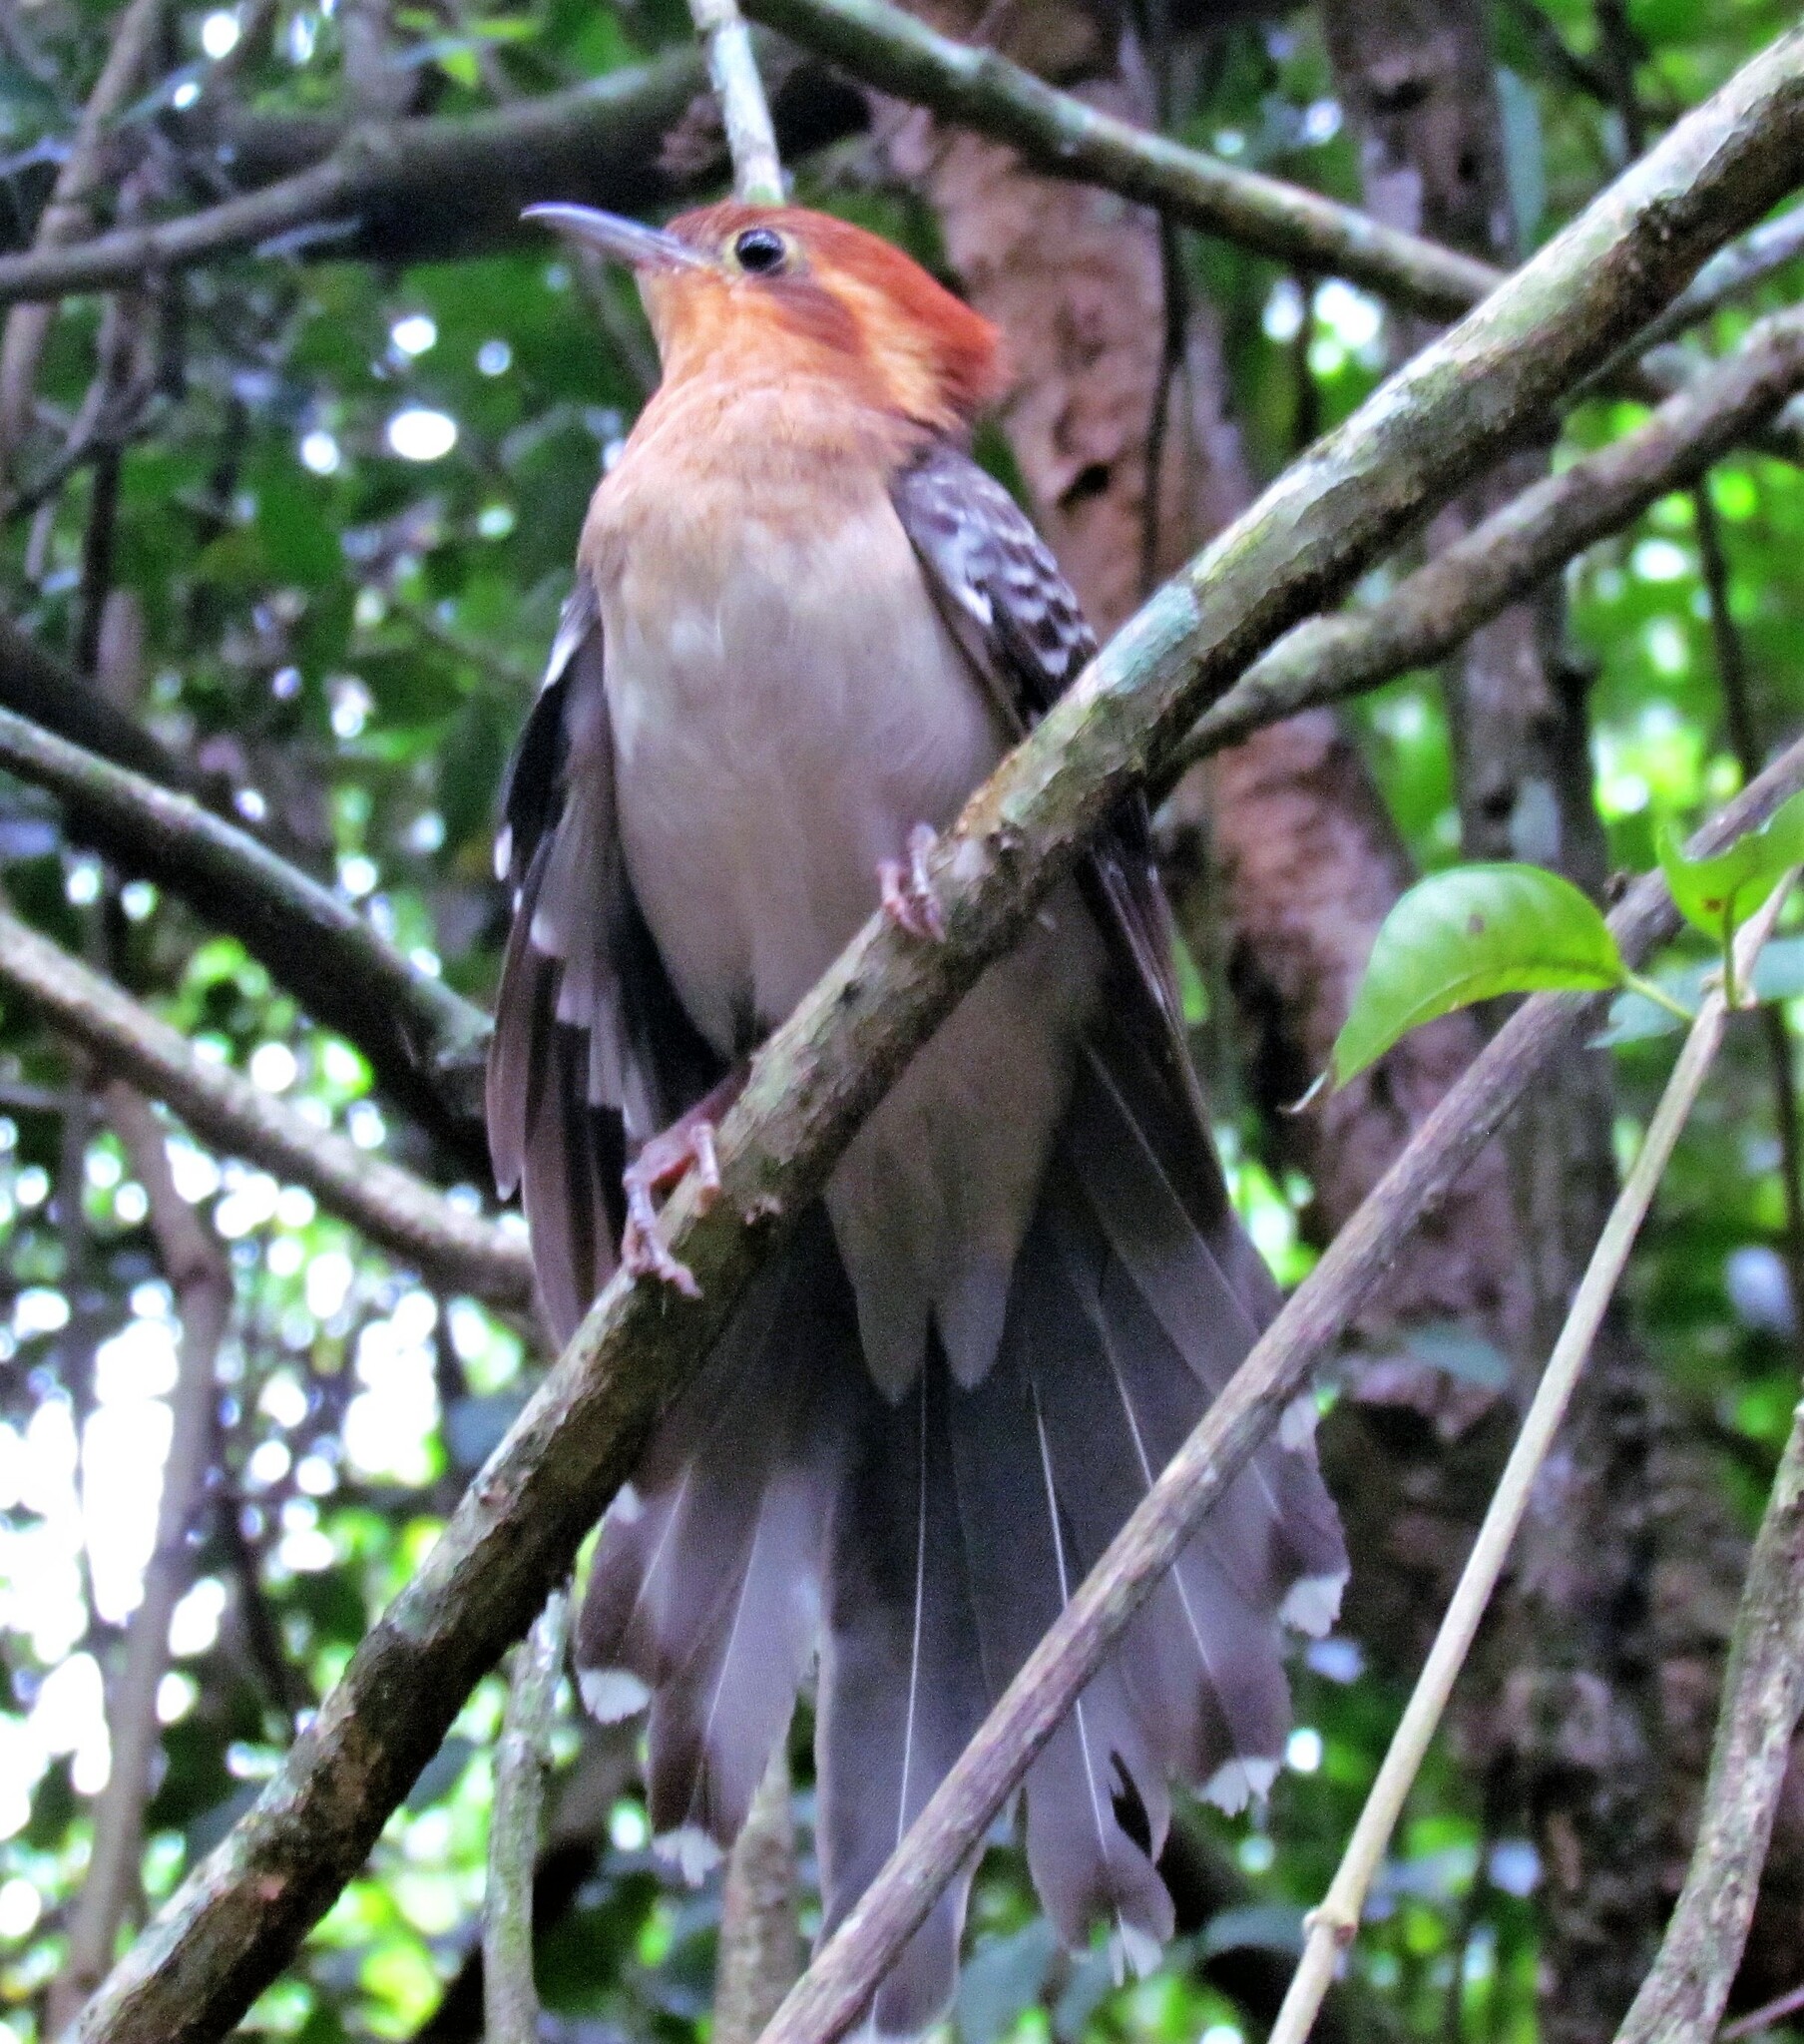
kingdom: Animalia
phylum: Chordata
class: Aves
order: Cuculiformes
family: Cuculidae
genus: Dromococcyx
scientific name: Dromococcyx pavoninus
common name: Pavonine cuckoo
